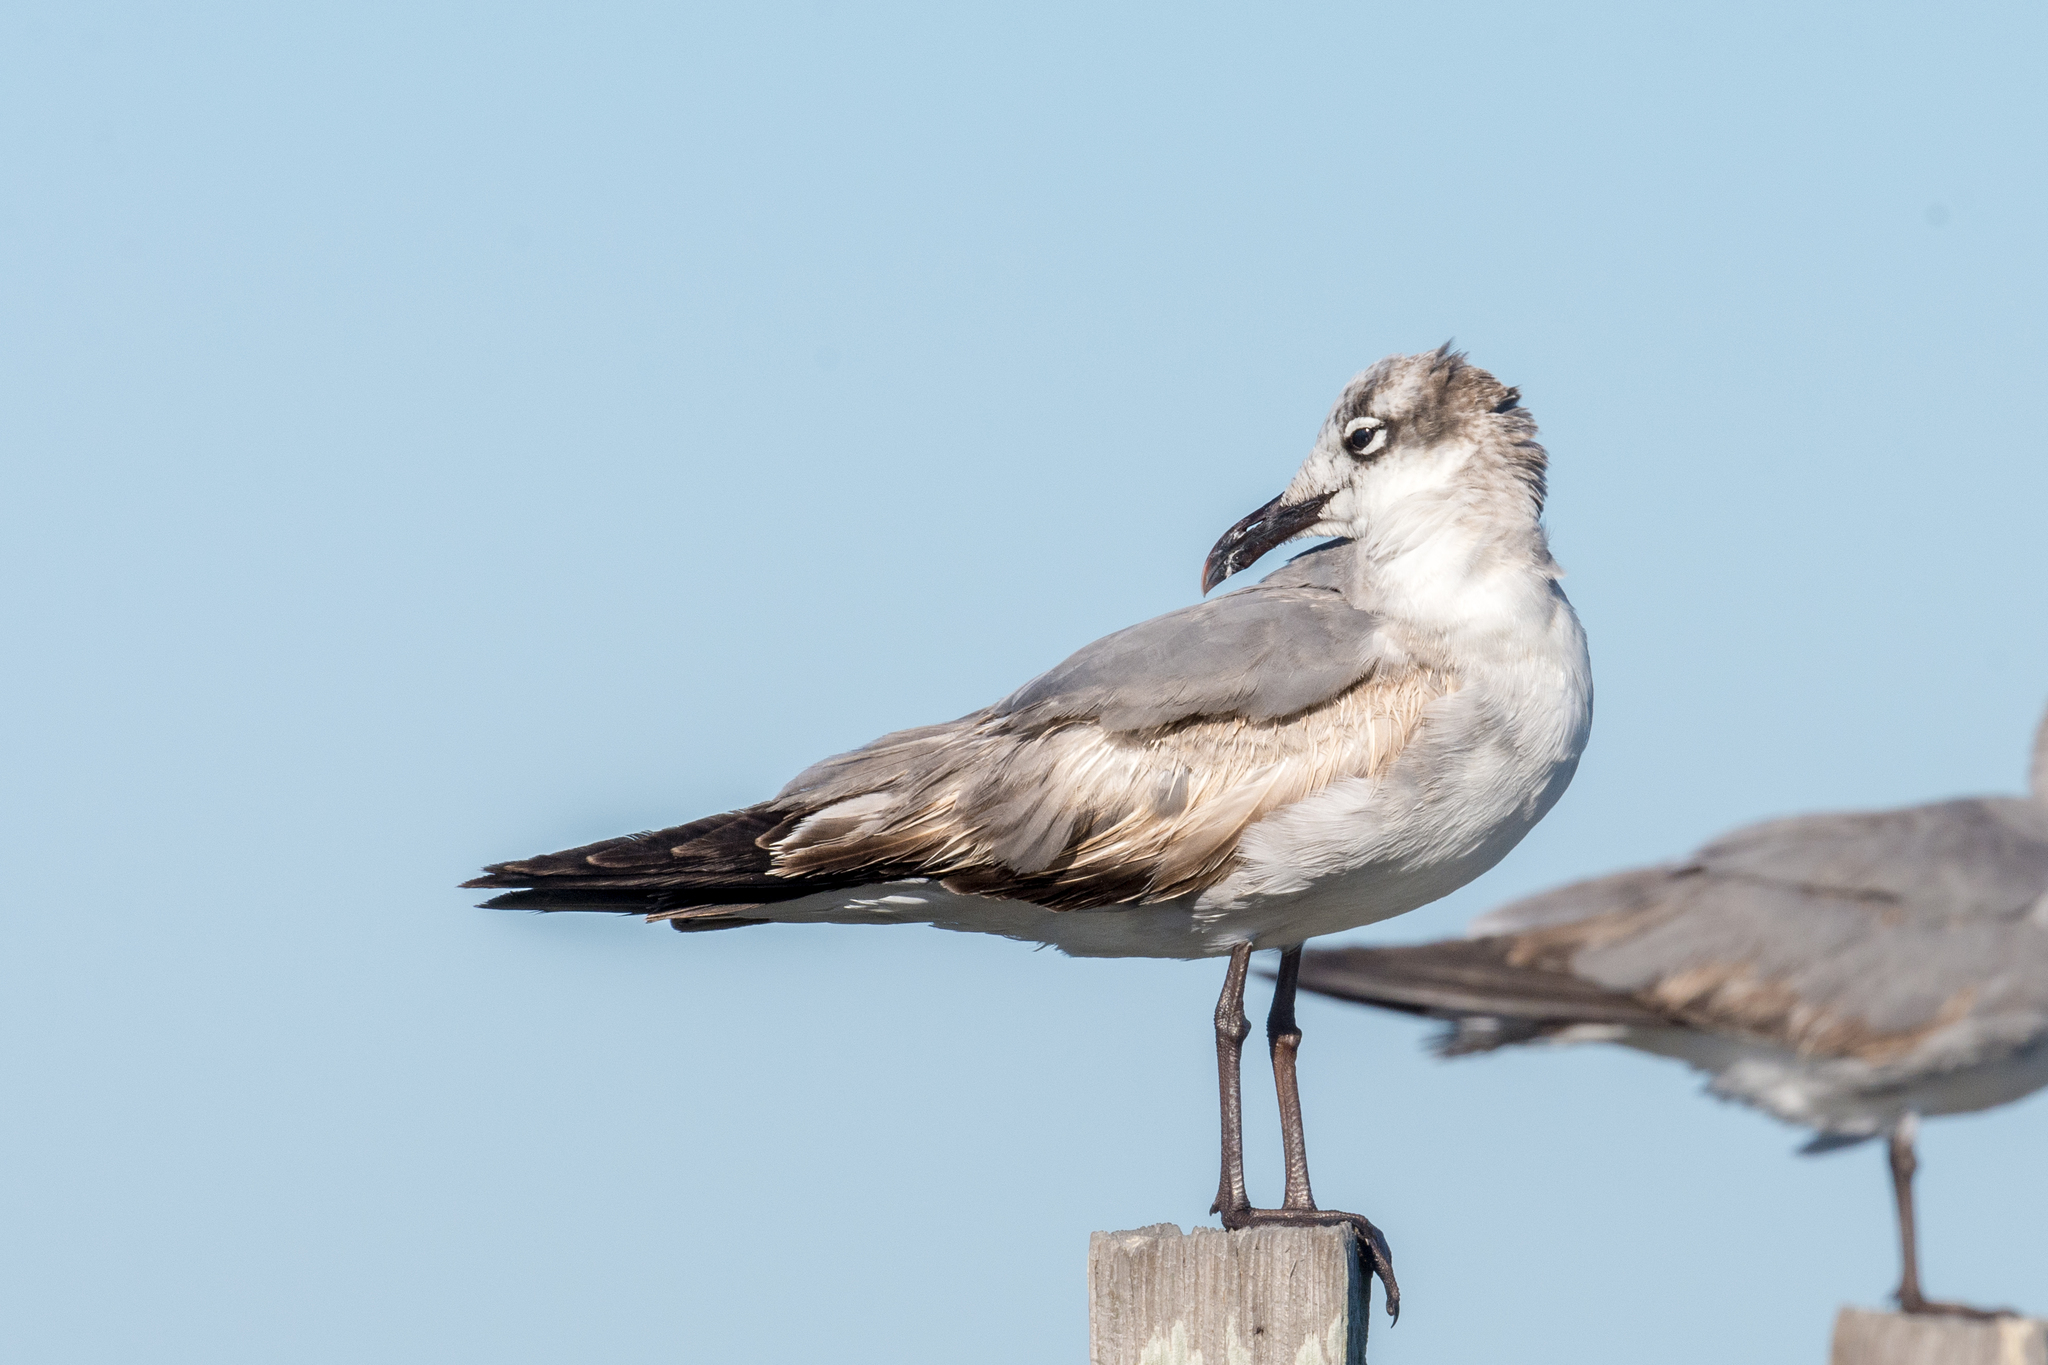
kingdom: Animalia
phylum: Chordata
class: Aves
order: Charadriiformes
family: Laridae
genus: Leucophaeus
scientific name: Leucophaeus atricilla
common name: Laughing gull
